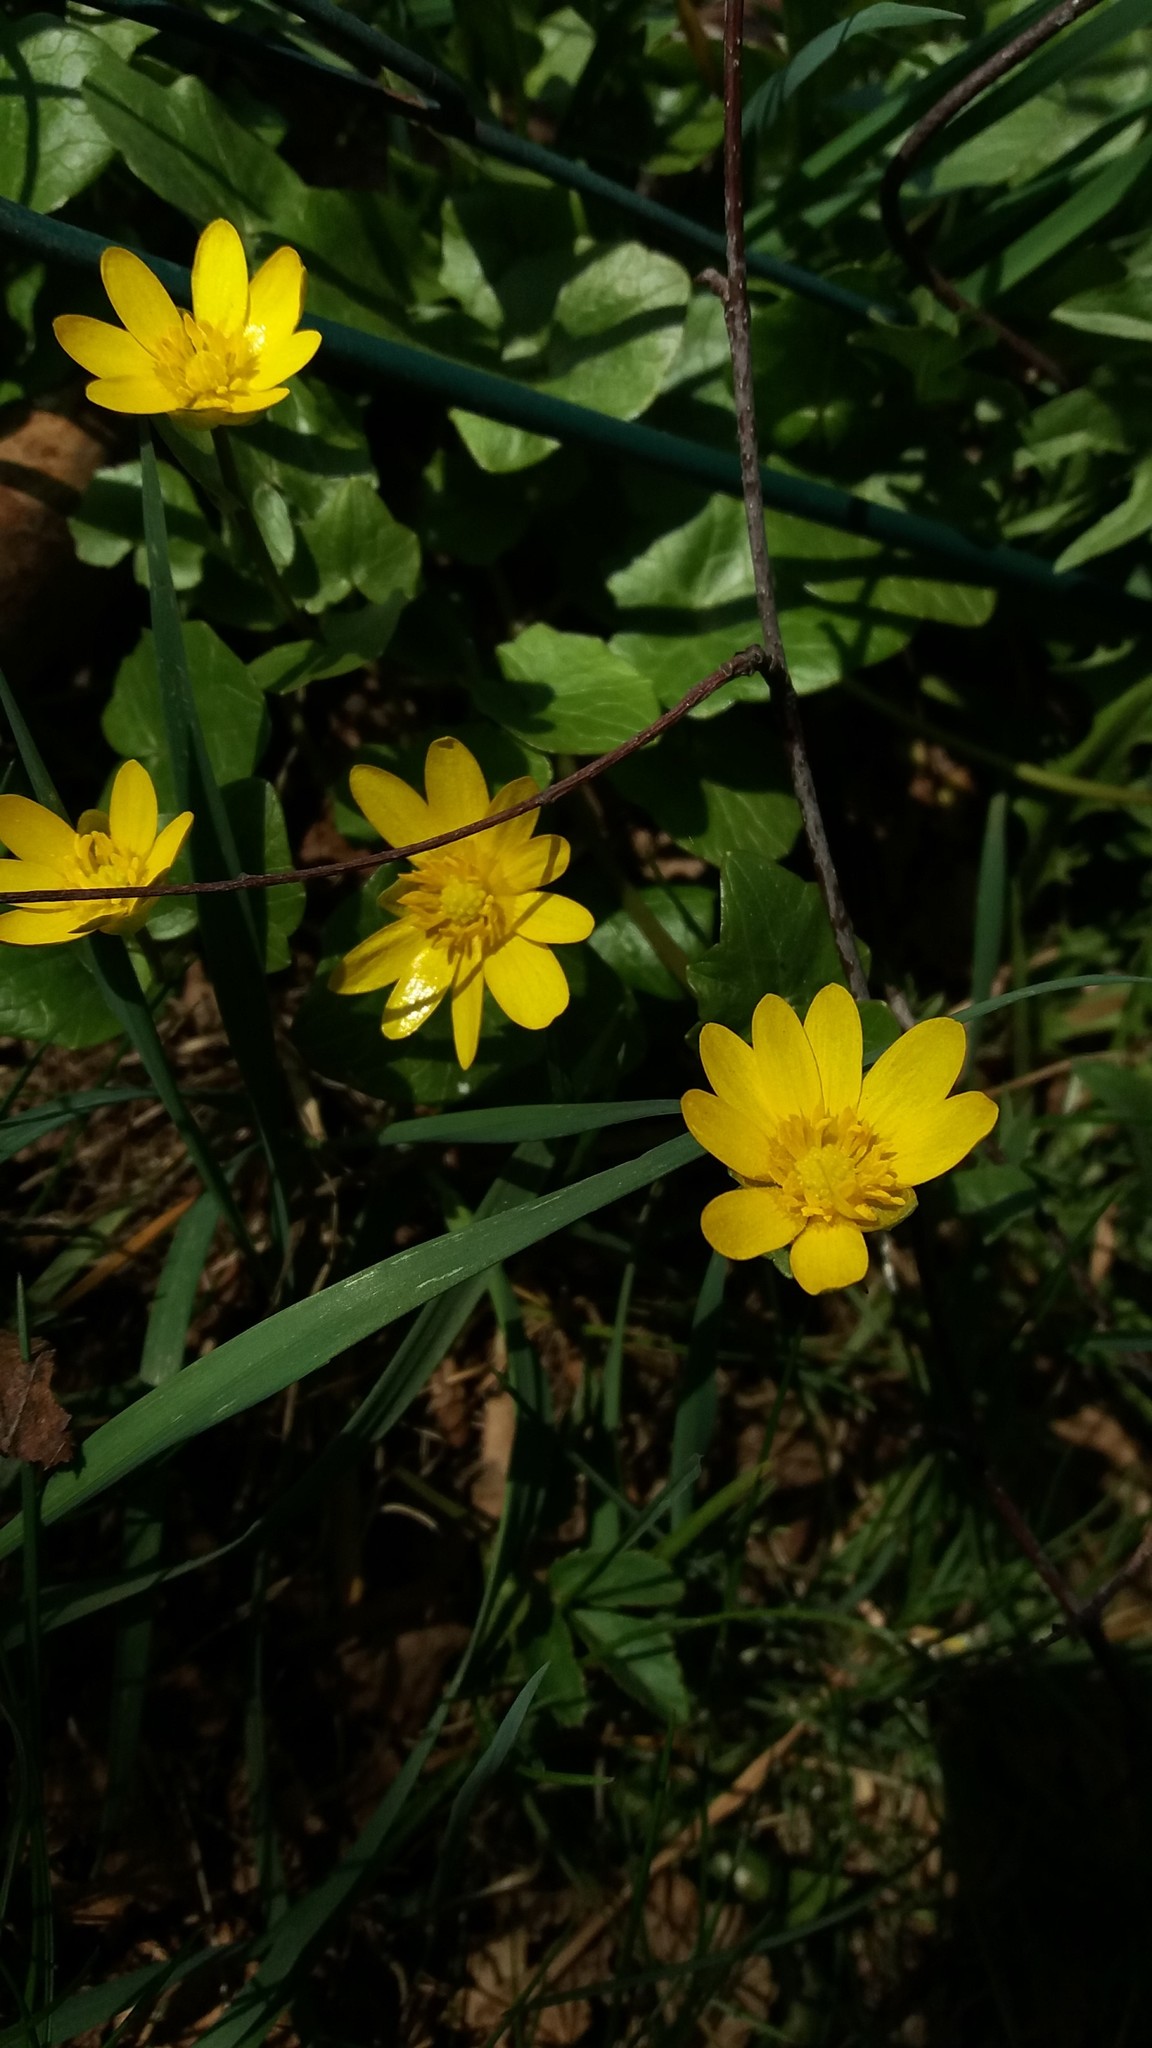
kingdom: Plantae
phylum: Tracheophyta
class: Magnoliopsida
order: Ranunculales
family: Ranunculaceae
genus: Ficaria
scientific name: Ficaria verna
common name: Lesser celandine
